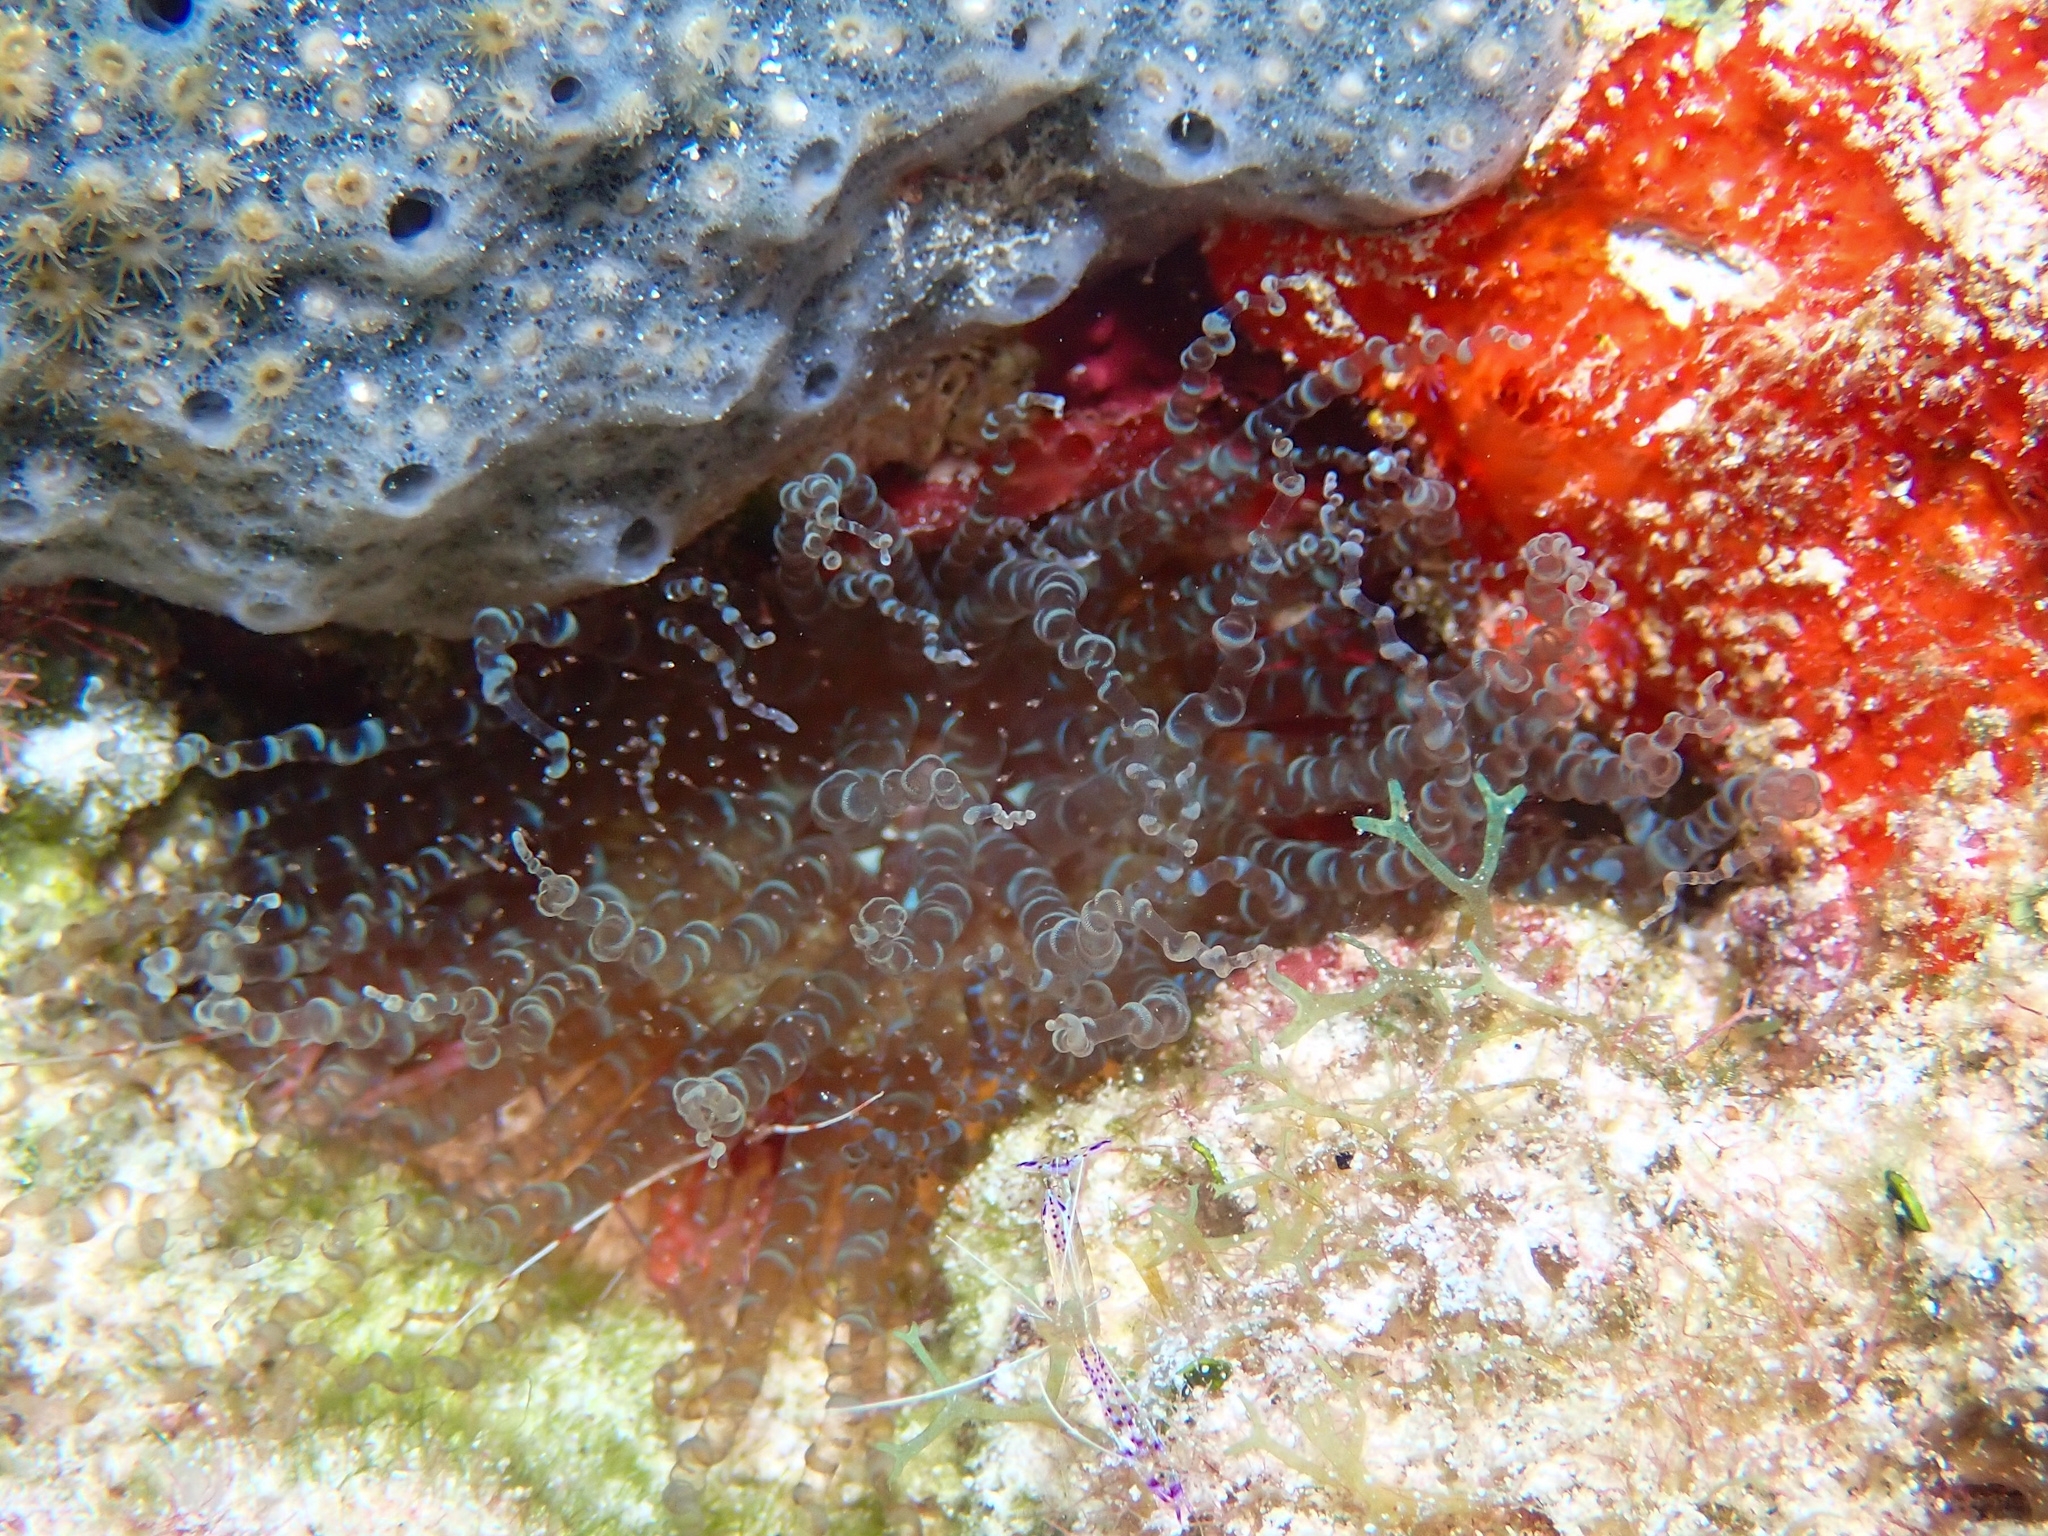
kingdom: Animalia
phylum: Cnidaria
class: Anthozoa
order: Actiniaria
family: Aiptasiidae
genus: Bartholomea
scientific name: Bartholomea annulata
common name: Corkscrew anemone
